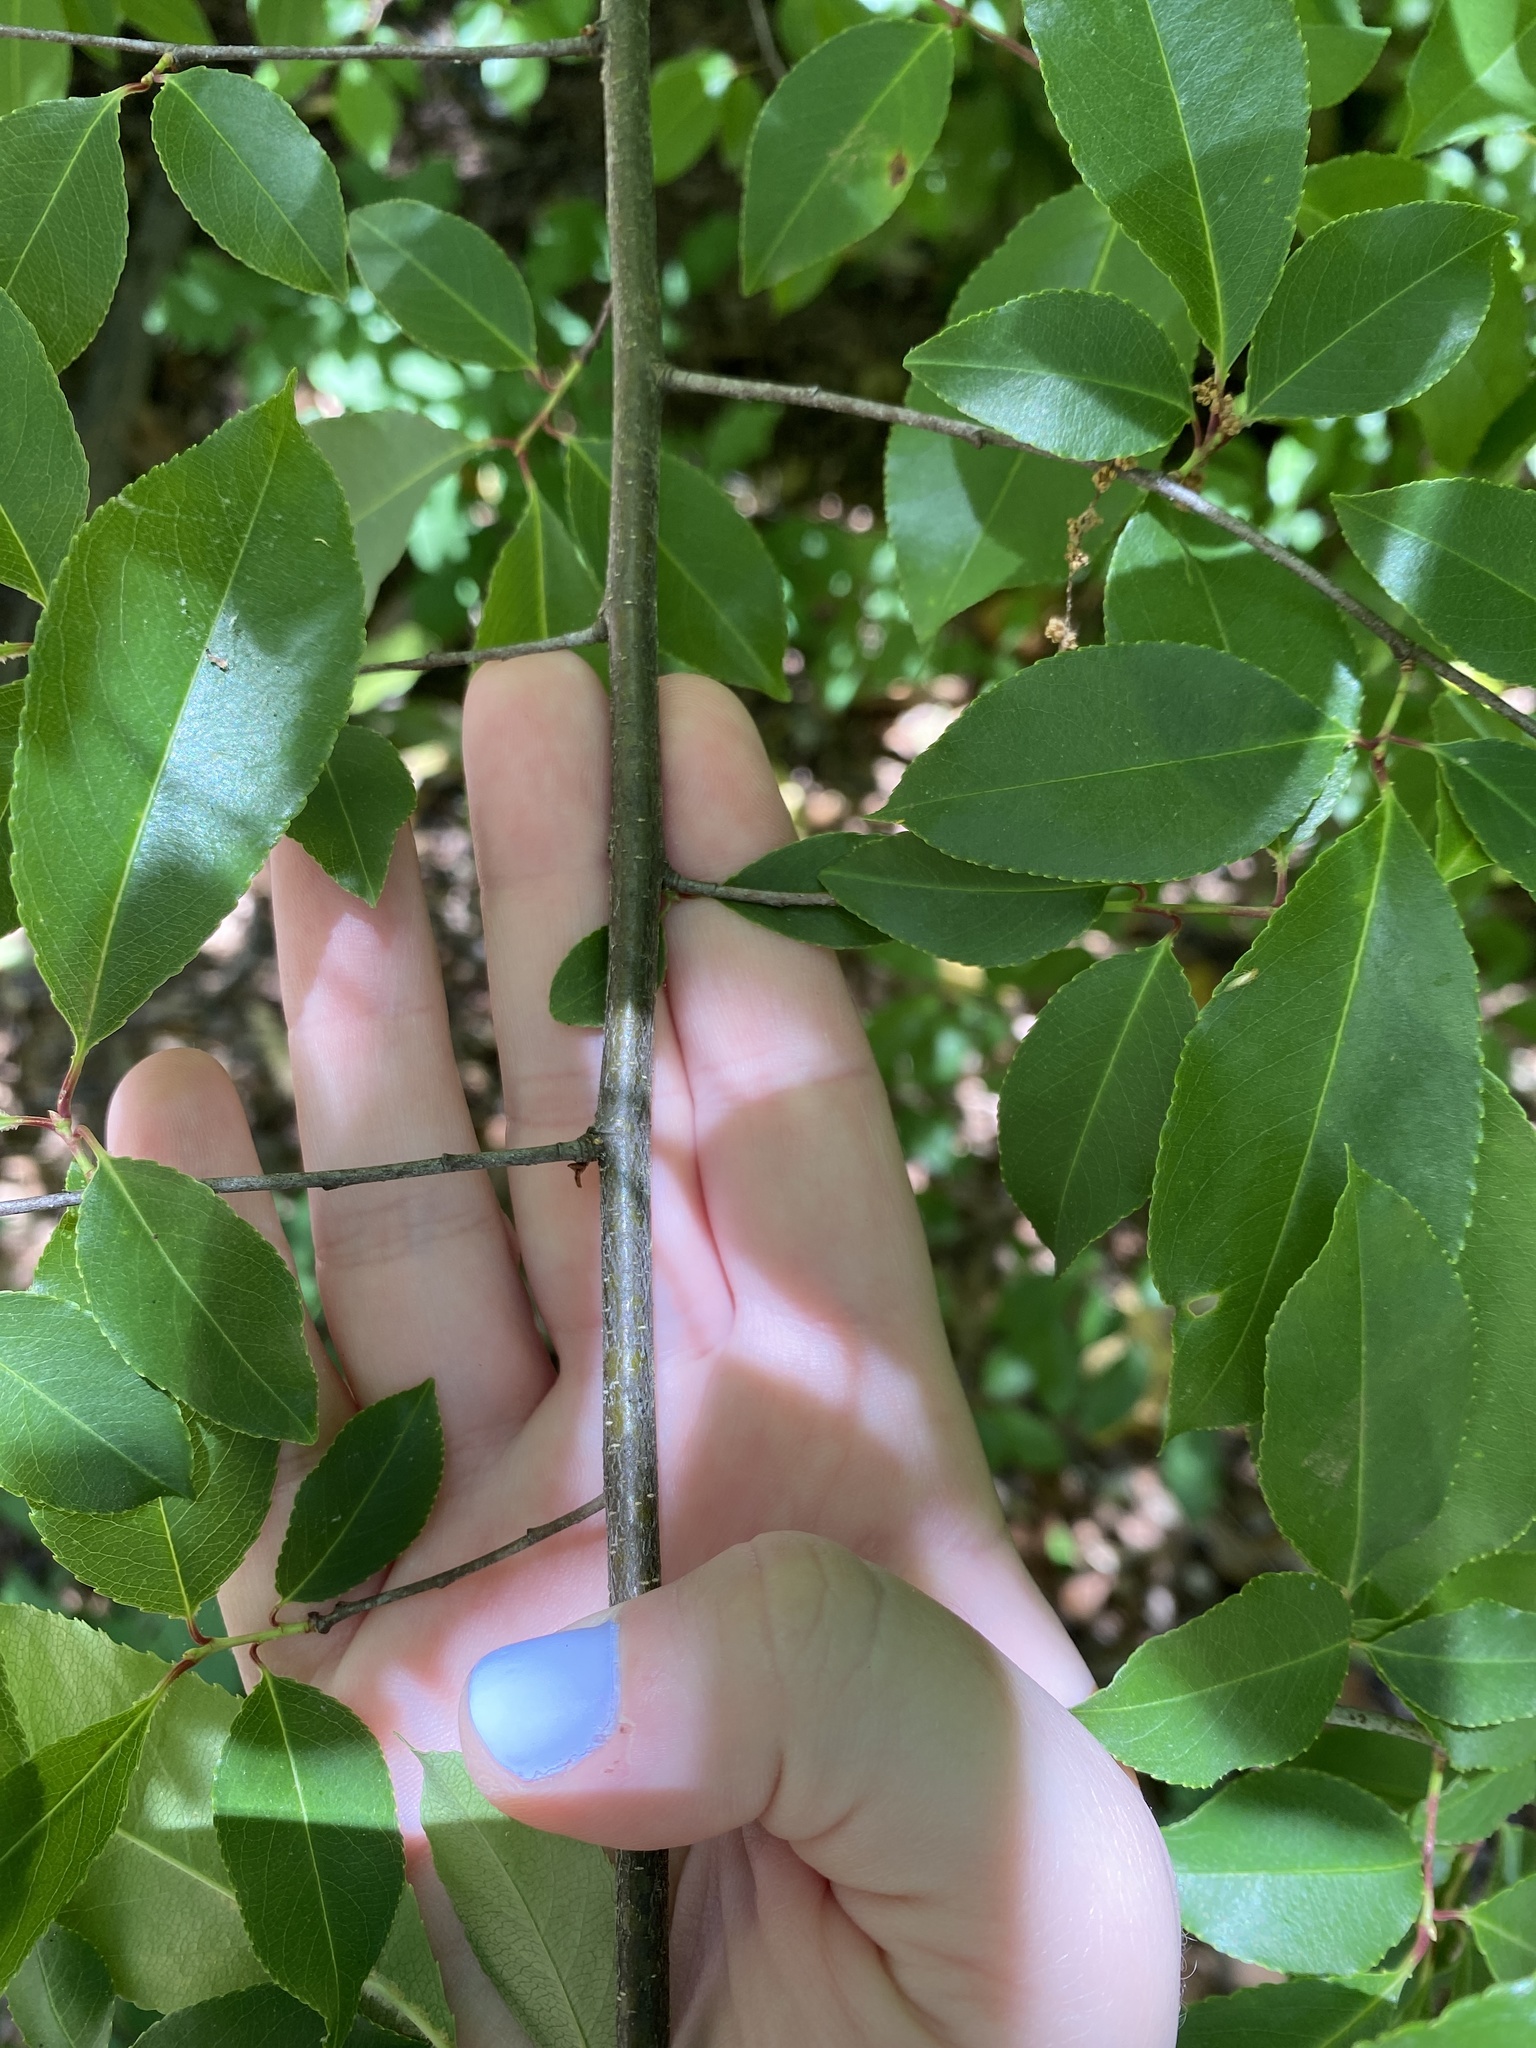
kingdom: Plantae
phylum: Tracheophyta
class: Magnoliopsida
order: Rosales
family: Rosaceae
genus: Prunus
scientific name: Prunus serotina
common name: Black cherry
